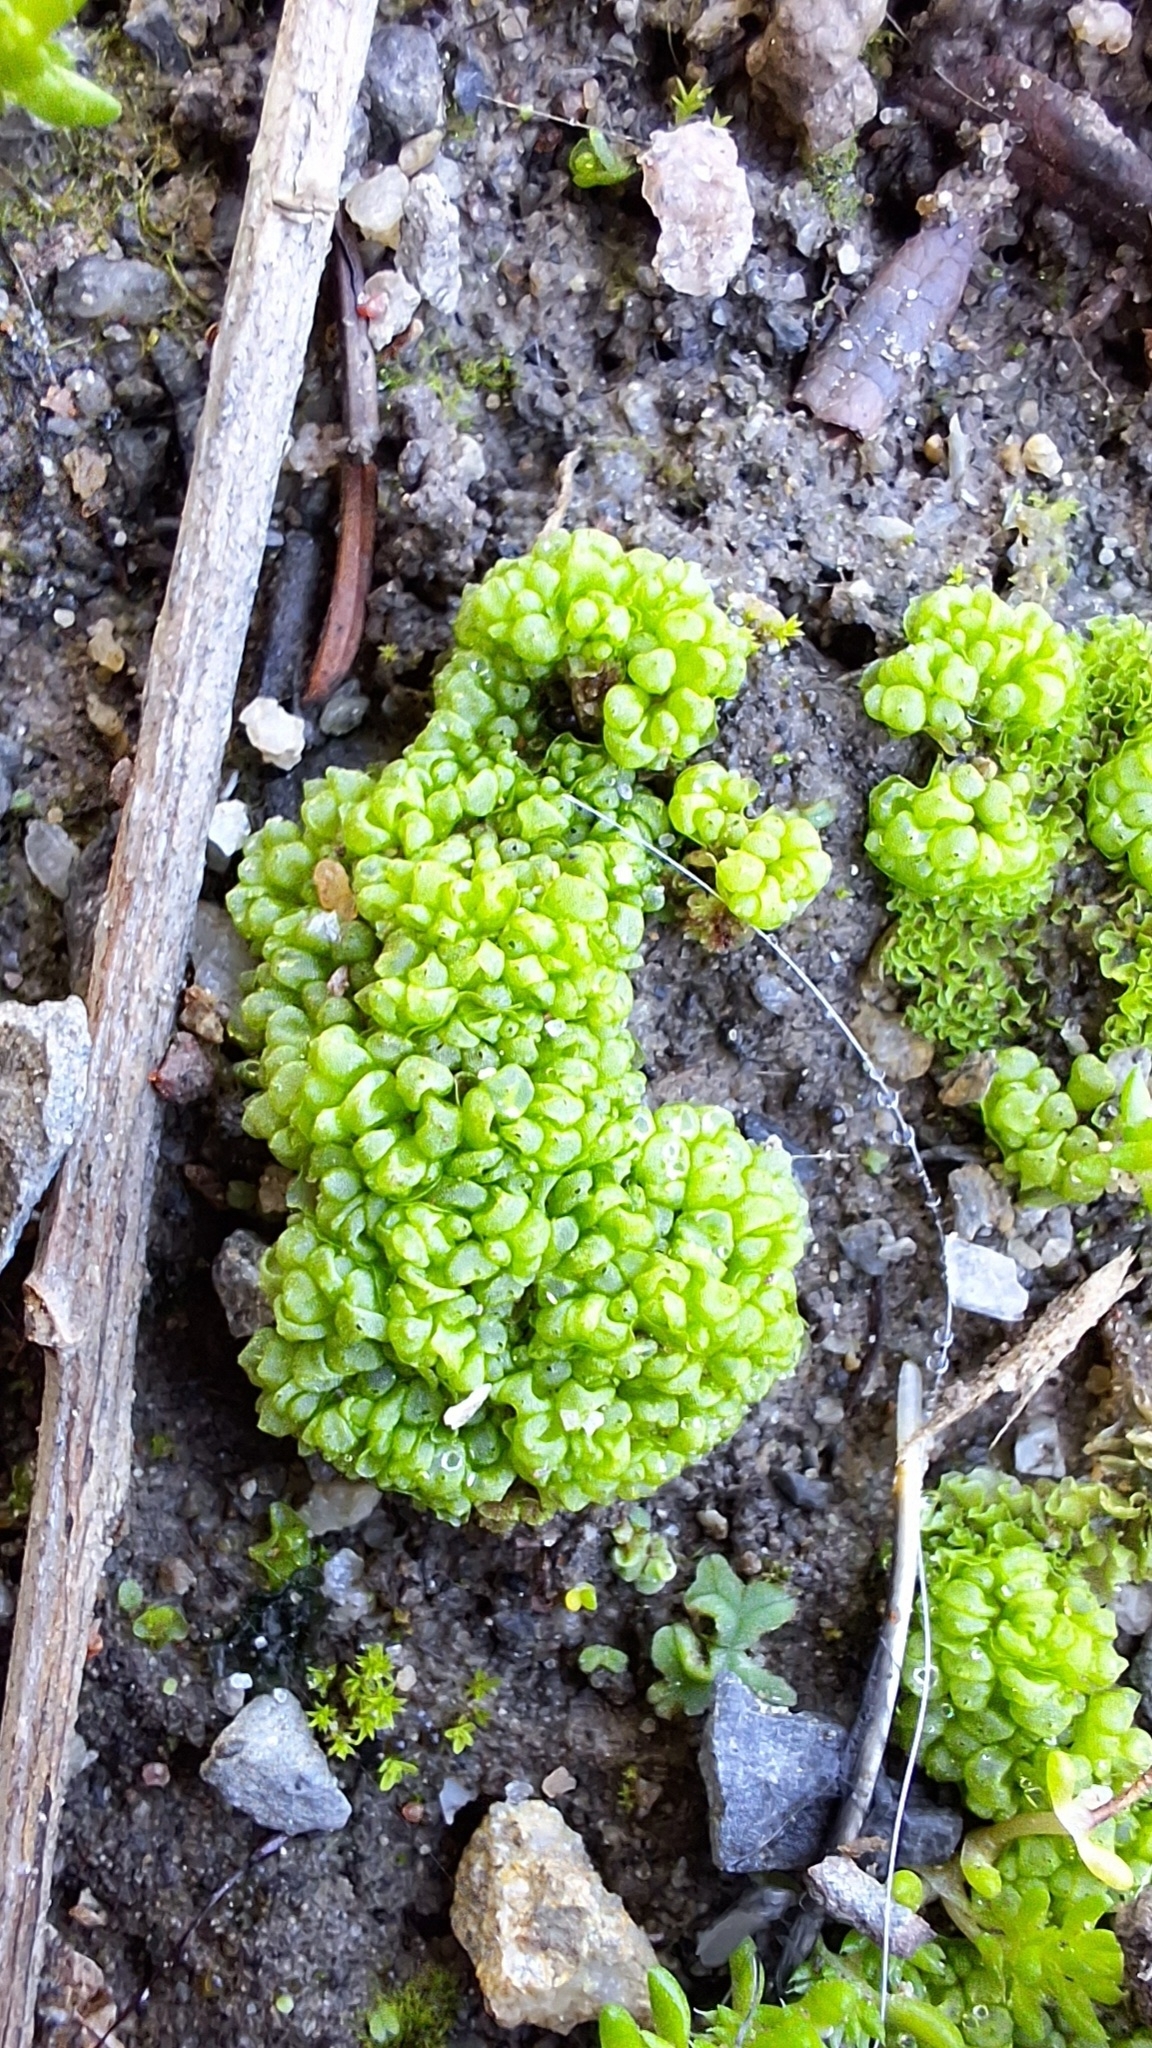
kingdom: Plantae
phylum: Marchantiophyta
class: Marchantiopsida
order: Sphaerocarpales
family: Sphaerocarpaceae
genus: Sphaerocarpos
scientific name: Sphaerocarpos texanus
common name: Texas balloonwort
